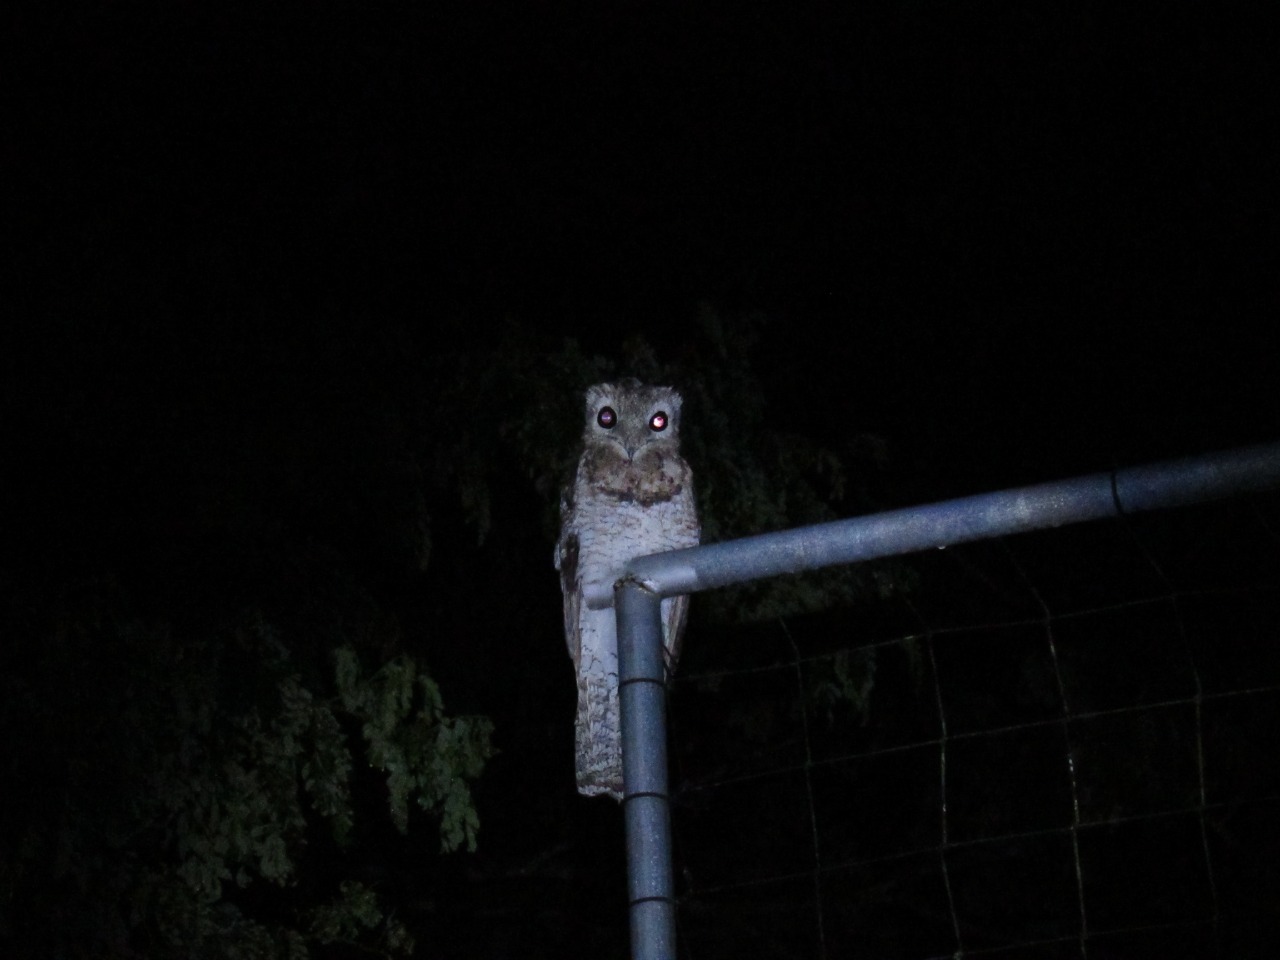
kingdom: Animalia
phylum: Chordata
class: Aves
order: Nyctibiiformes
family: Nyctibiidae
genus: Nyctibius
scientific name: Nyctibius grandis
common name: Great potoo
